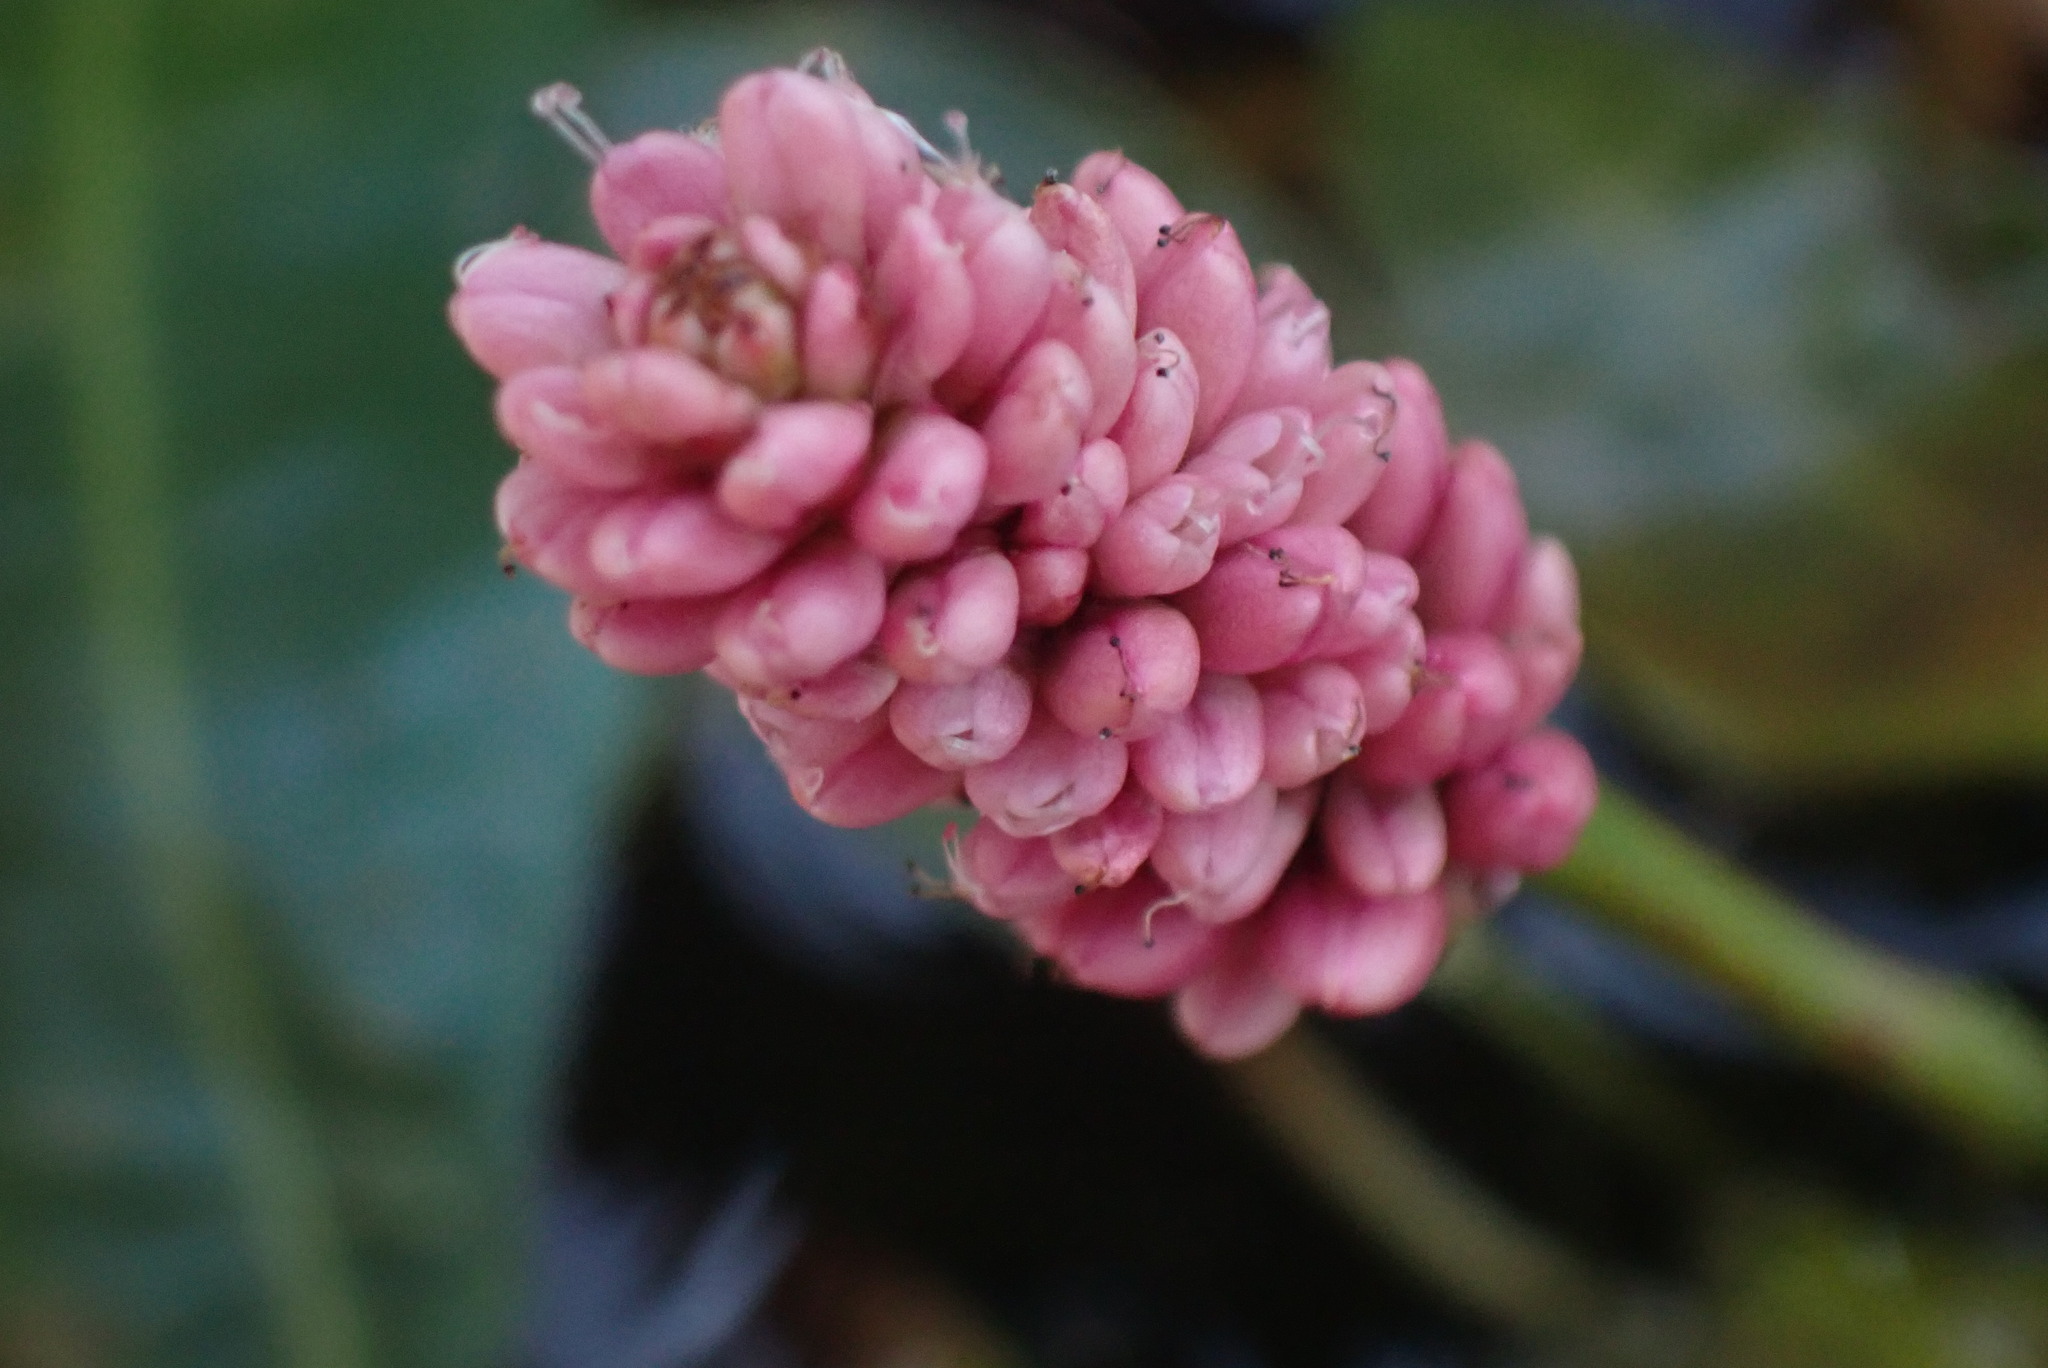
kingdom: Plantae
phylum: Tracheophyta
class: Magnoliopsida
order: Caryophyllales
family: Polygonaceae
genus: Persicaria
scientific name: Persicaria amphibia
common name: Amphibious bistort
